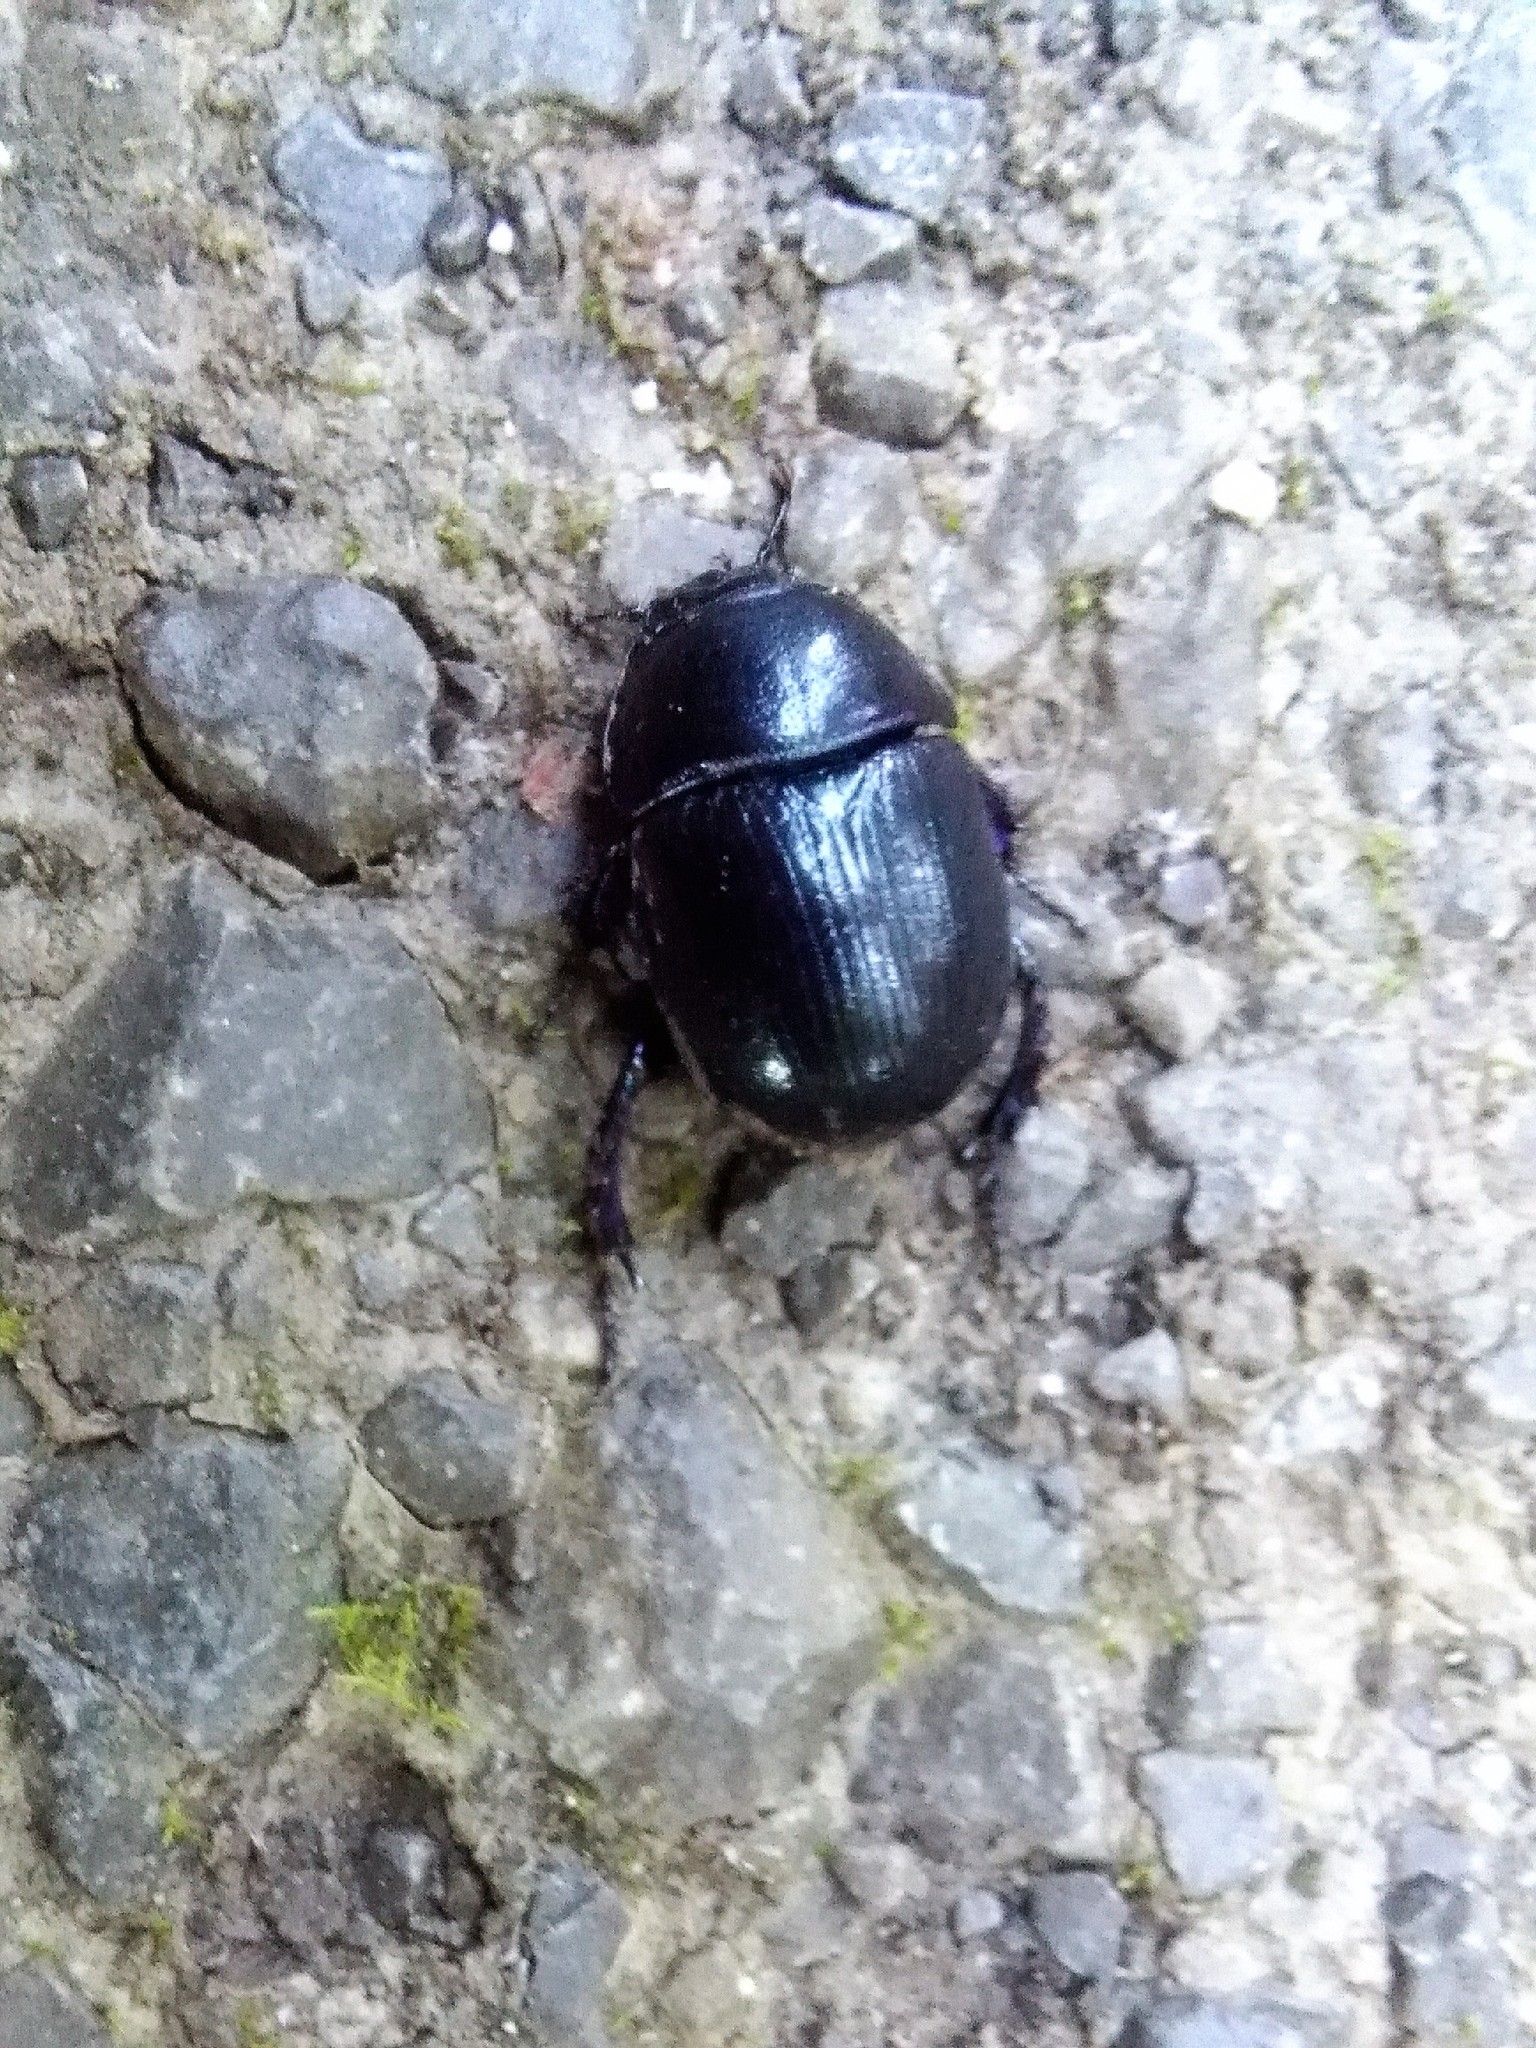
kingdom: Animalia
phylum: Arthropoda
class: Insecta
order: Coleoptera
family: Geotrupidae
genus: Anoplotrupes
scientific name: Anoplotrupes stercorosus
